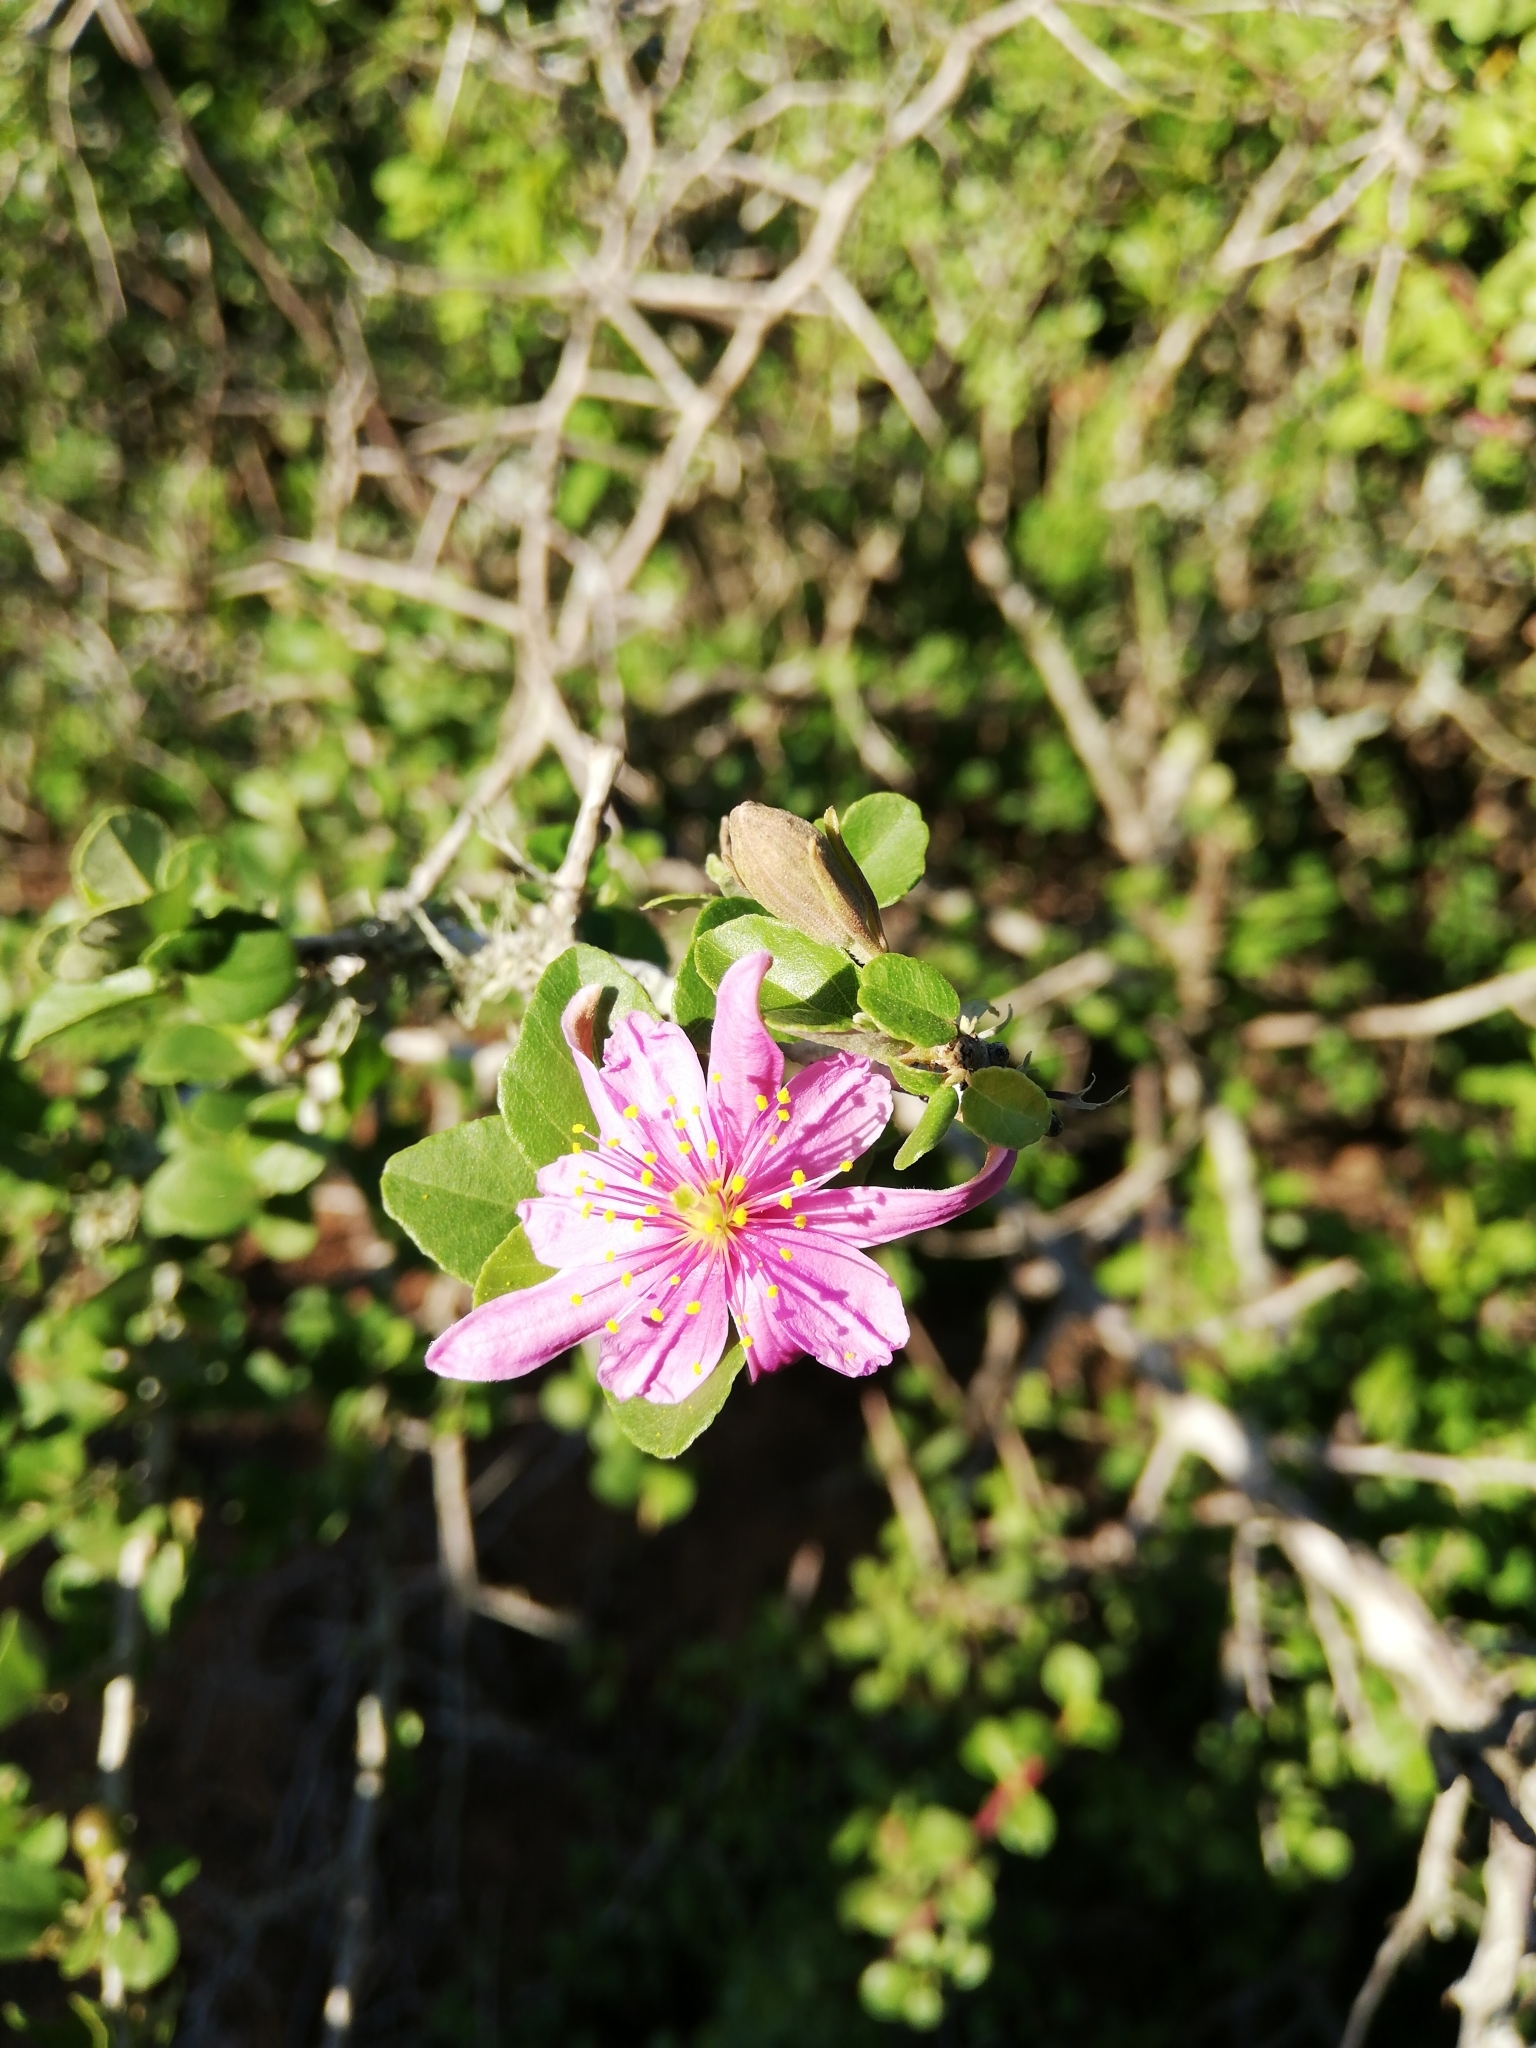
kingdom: Plantae
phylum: Tracheophyta
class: Magnoliopsida
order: Malvales
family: Malvaceae
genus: Grewia
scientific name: Grewia robusta
